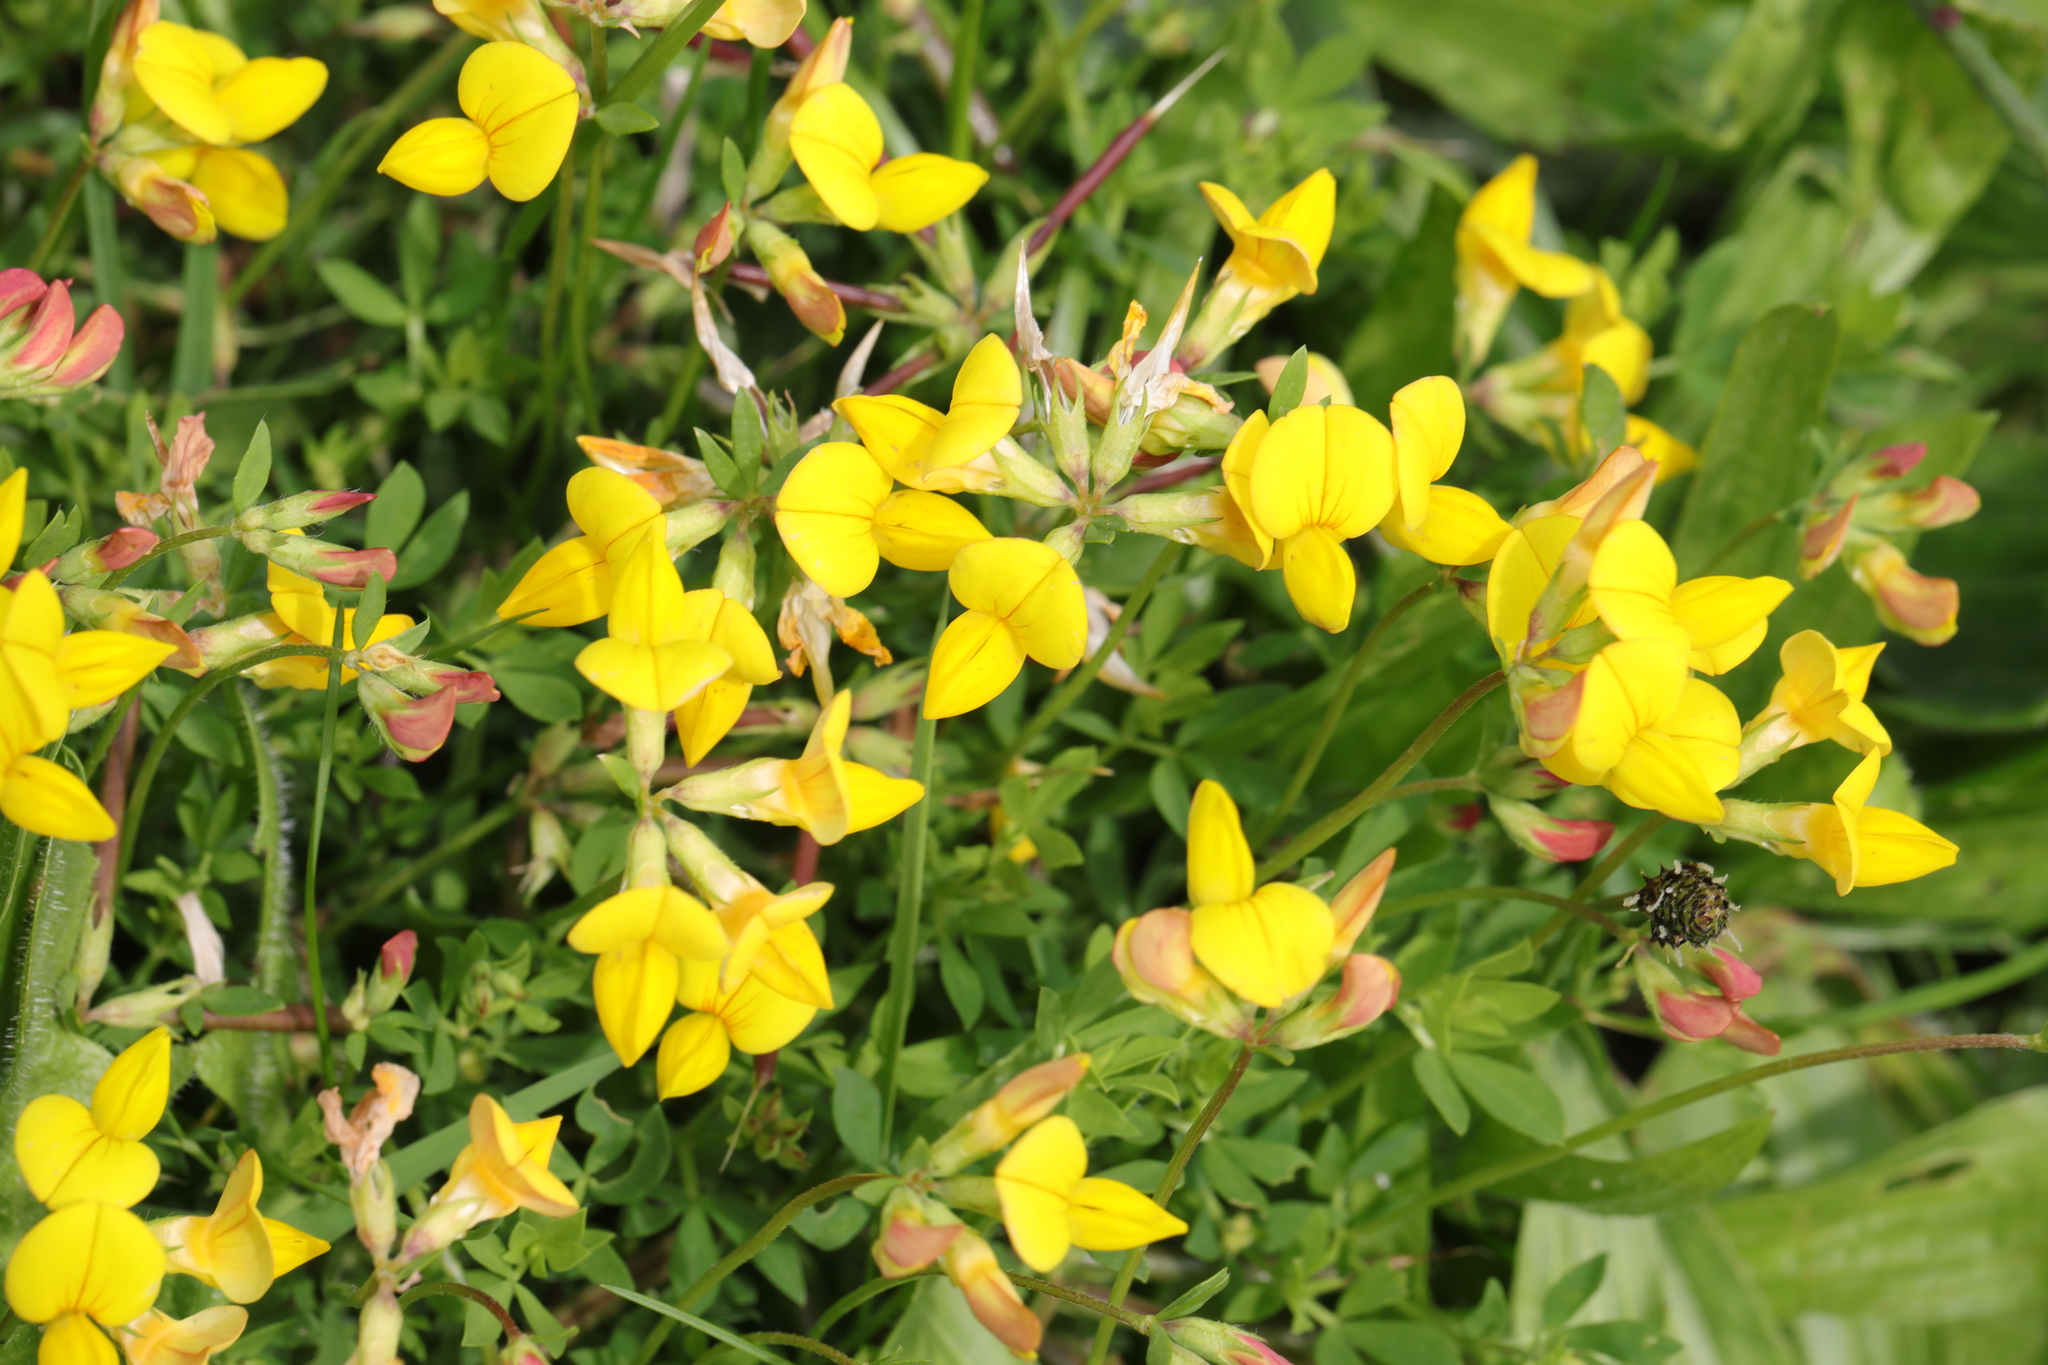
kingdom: Plantae
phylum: Tracheophyta
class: Magnoliopsida
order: Fabales
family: Fabaceae
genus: Lotus
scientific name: Lotus corniculatus
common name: Common bird's-foot-trefoil
